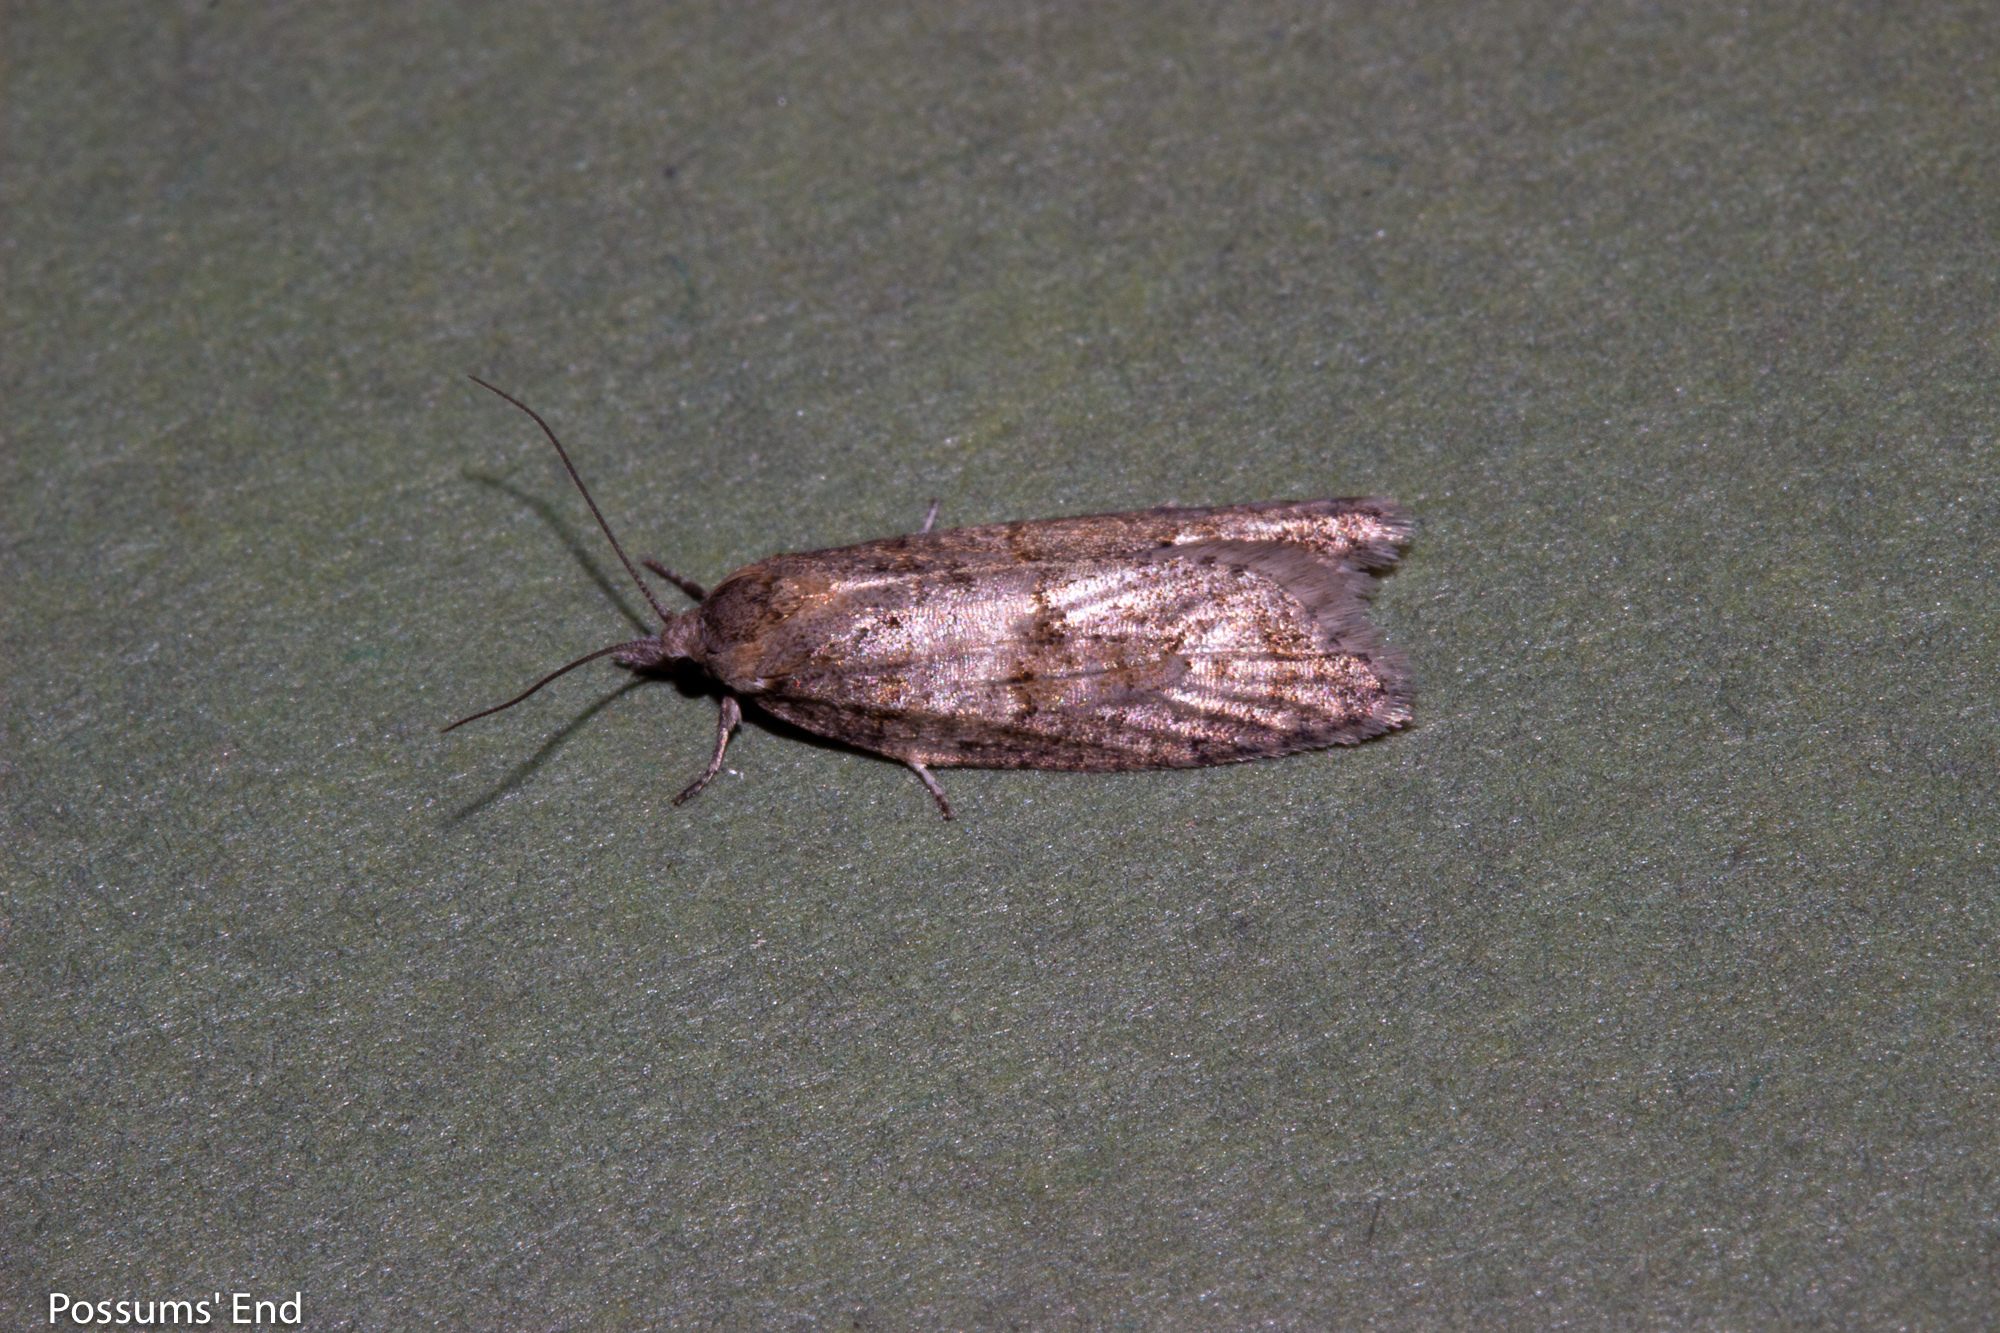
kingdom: Animalia
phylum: Arthropoda
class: Insecta
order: Lepidoptera
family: Tortricidae
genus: Prothelymna
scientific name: Prothelymna antiquana
